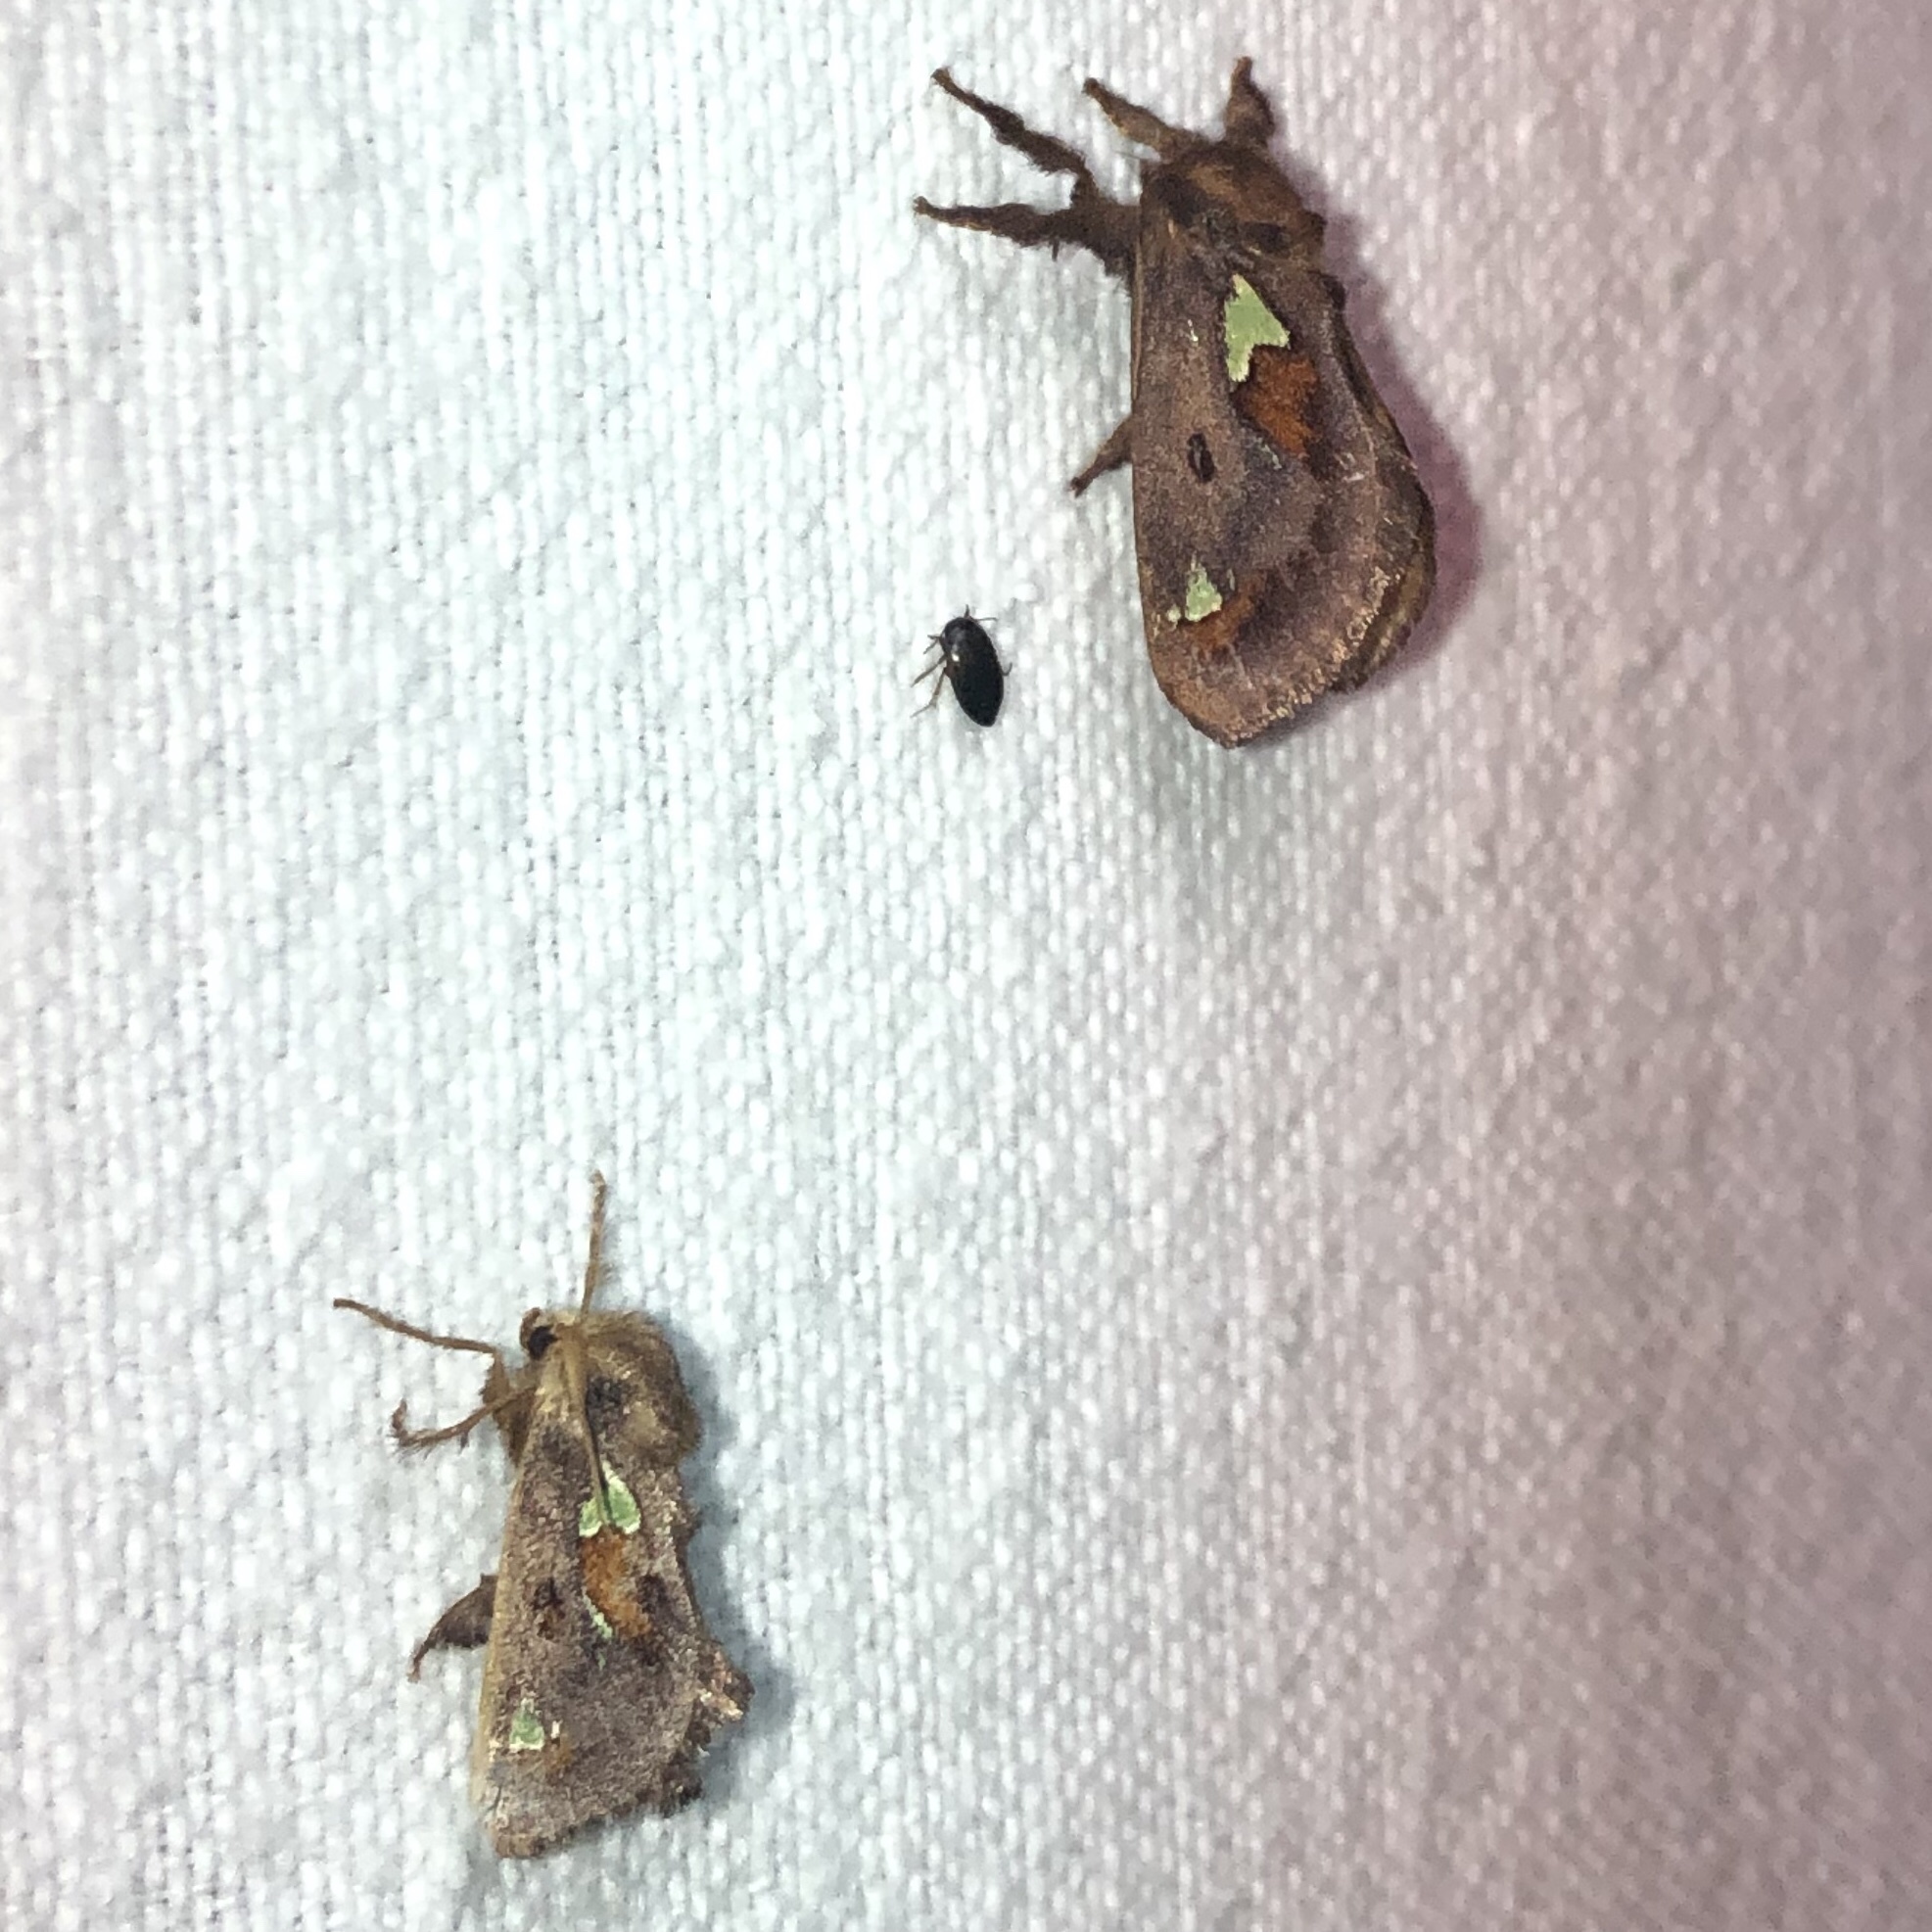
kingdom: Animalia
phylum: Arthropoda
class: Insecta
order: Lepidoptera
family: Limacodidae
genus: Euclea
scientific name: Euclea delphinii
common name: Spiny oak-slug moth
